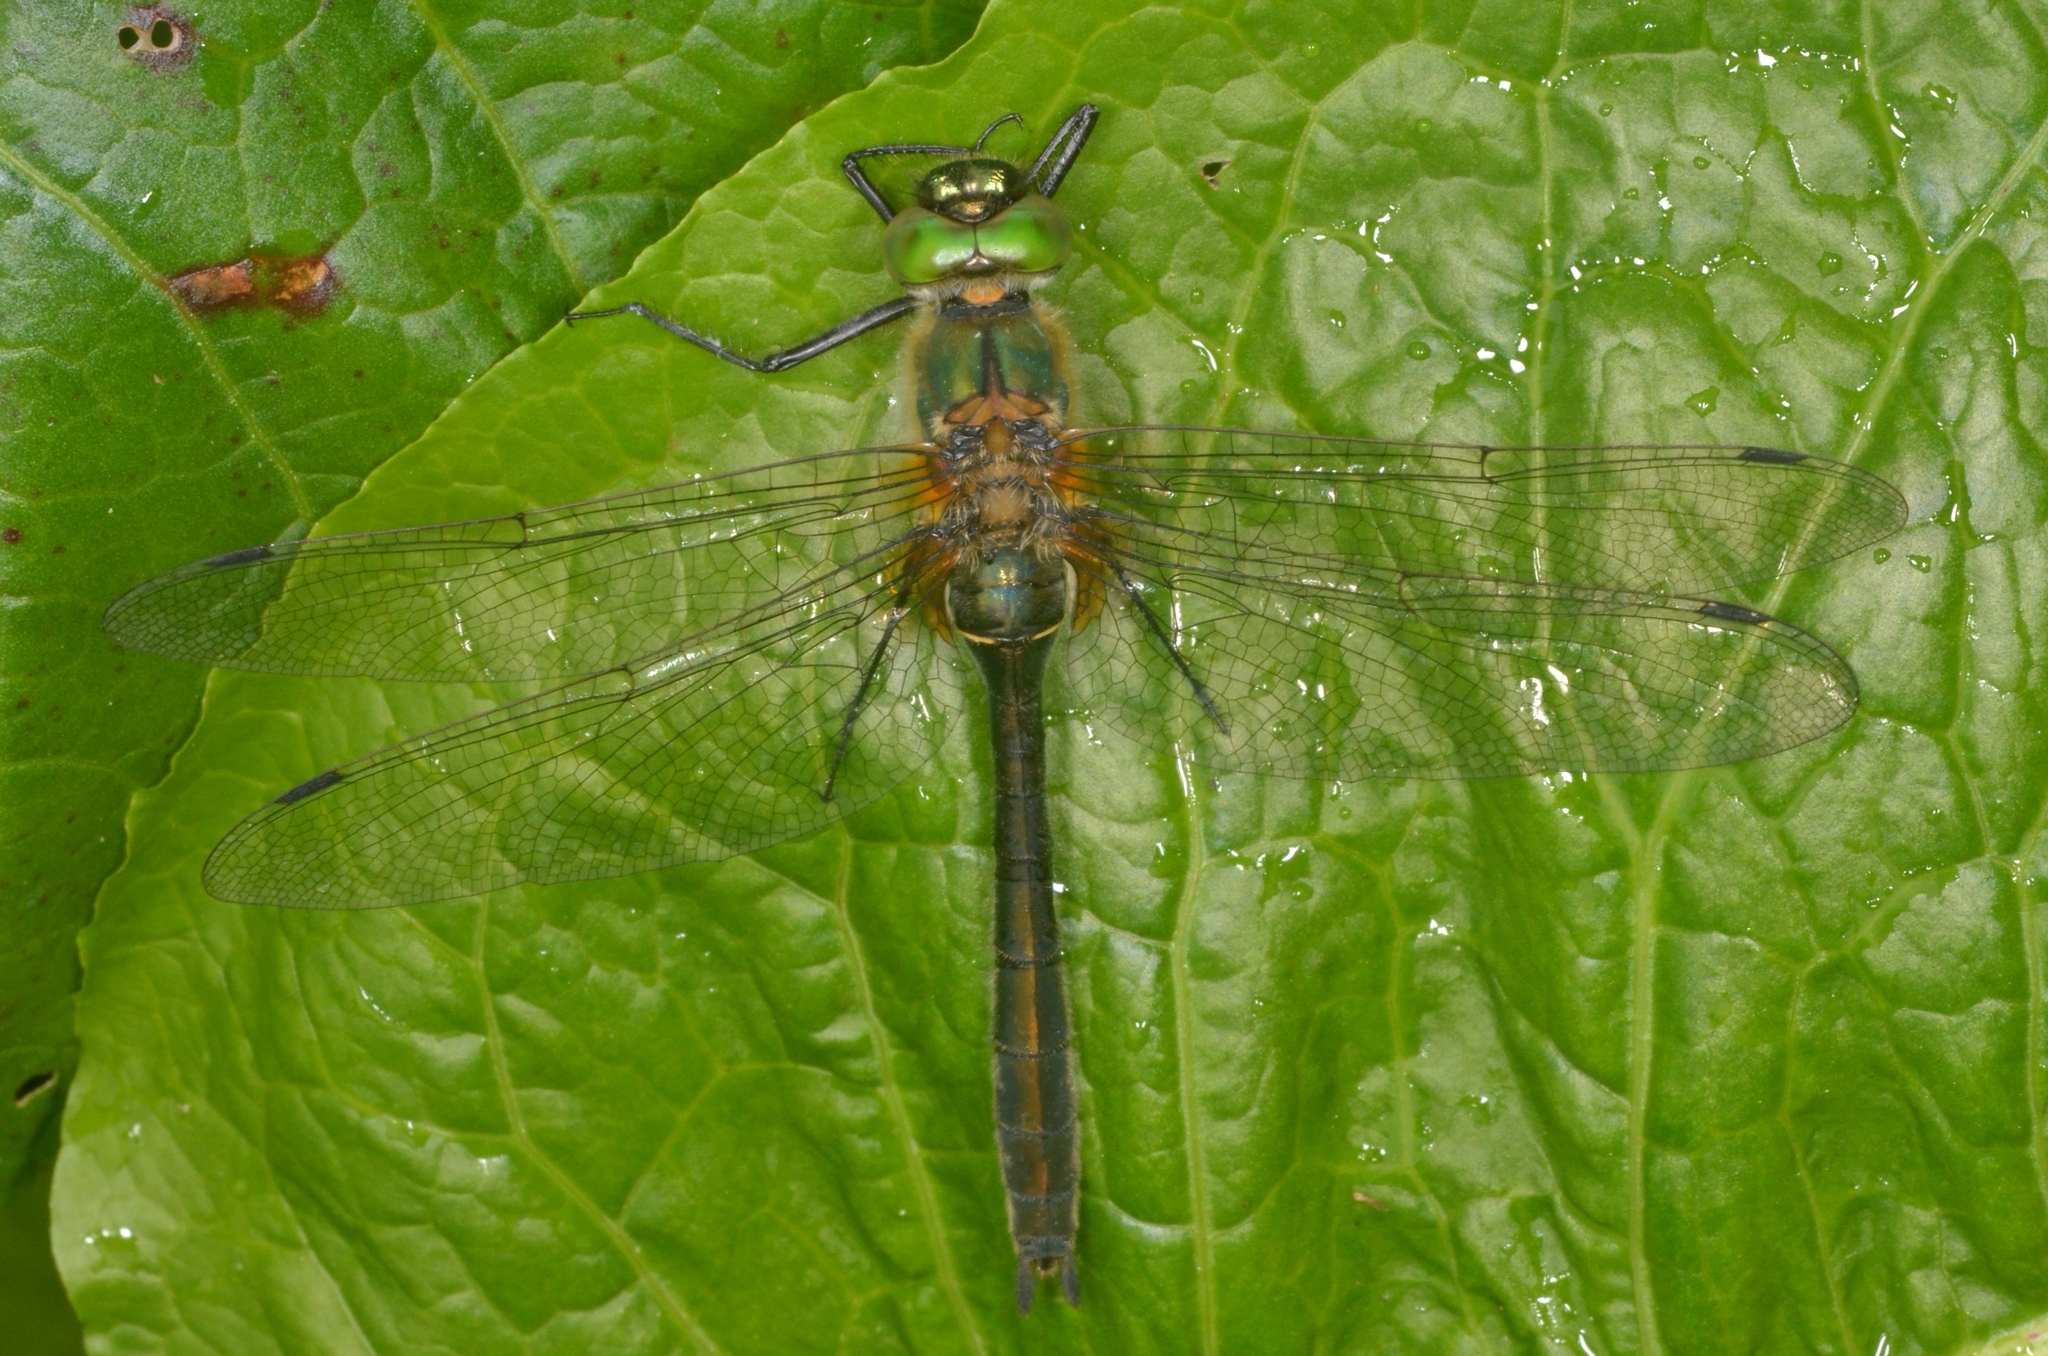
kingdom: Animalia
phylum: Arthropoda
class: Insecta
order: Odonata
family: Corduliidae
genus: Cordulia
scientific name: Cordulia aenea
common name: Downy emerald
